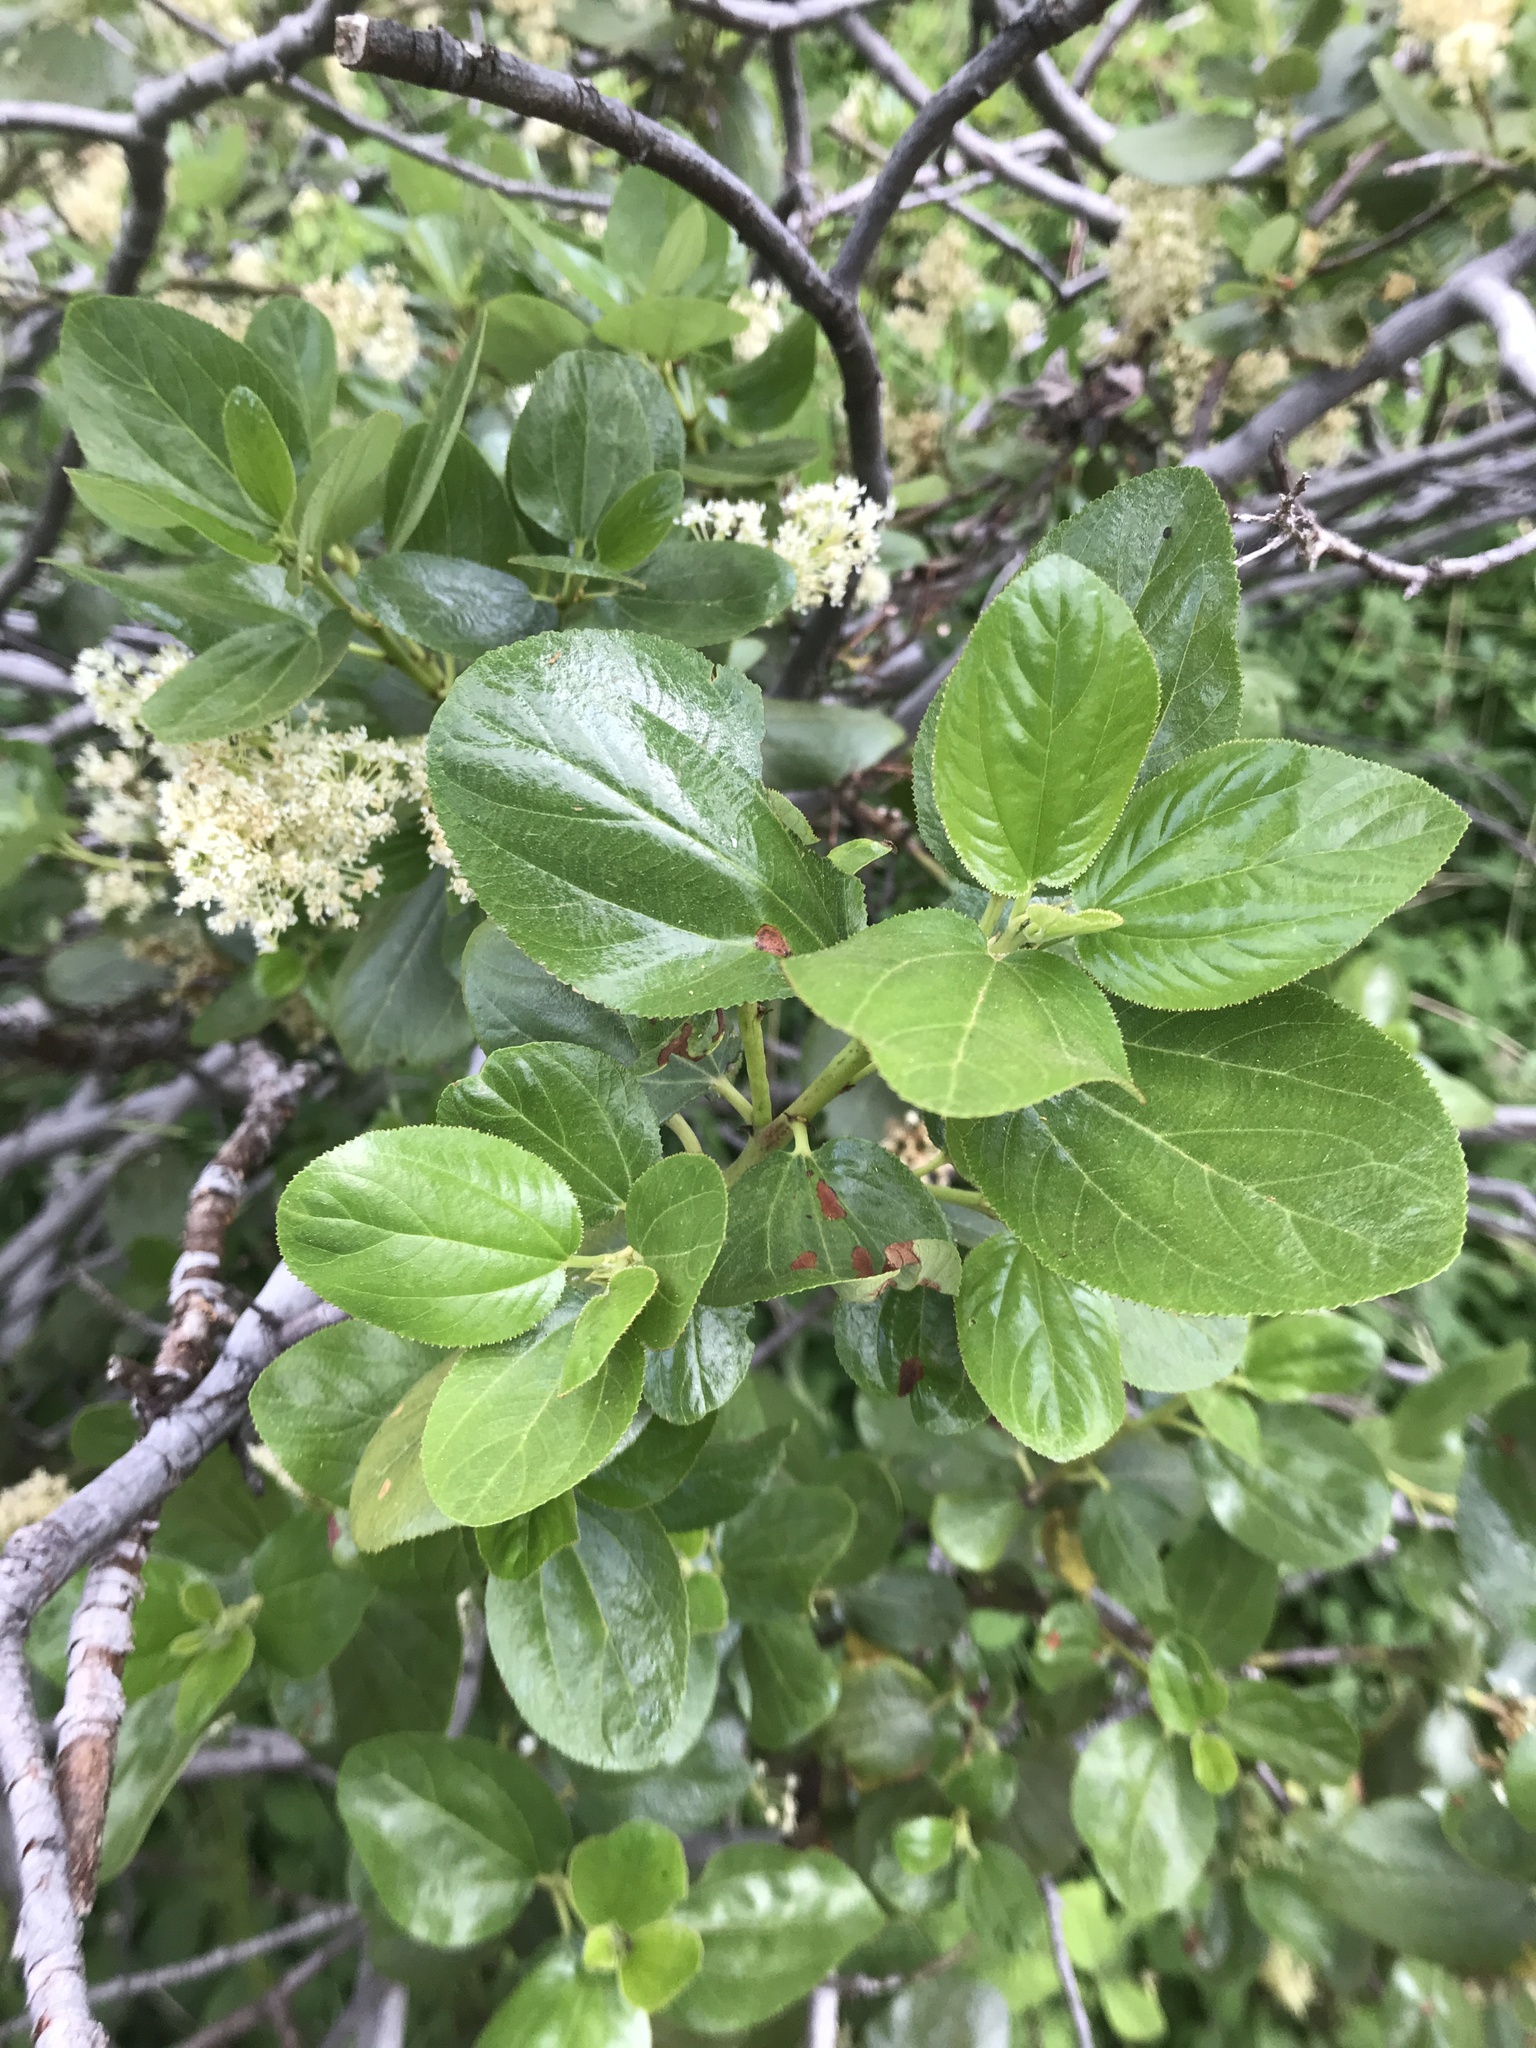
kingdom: Plantae
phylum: Tracheophyta
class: Magnoliopsida
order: Rosales
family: Rhamnaceae
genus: Ceanothus
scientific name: Ceanothus velutinus
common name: Snowbrush
